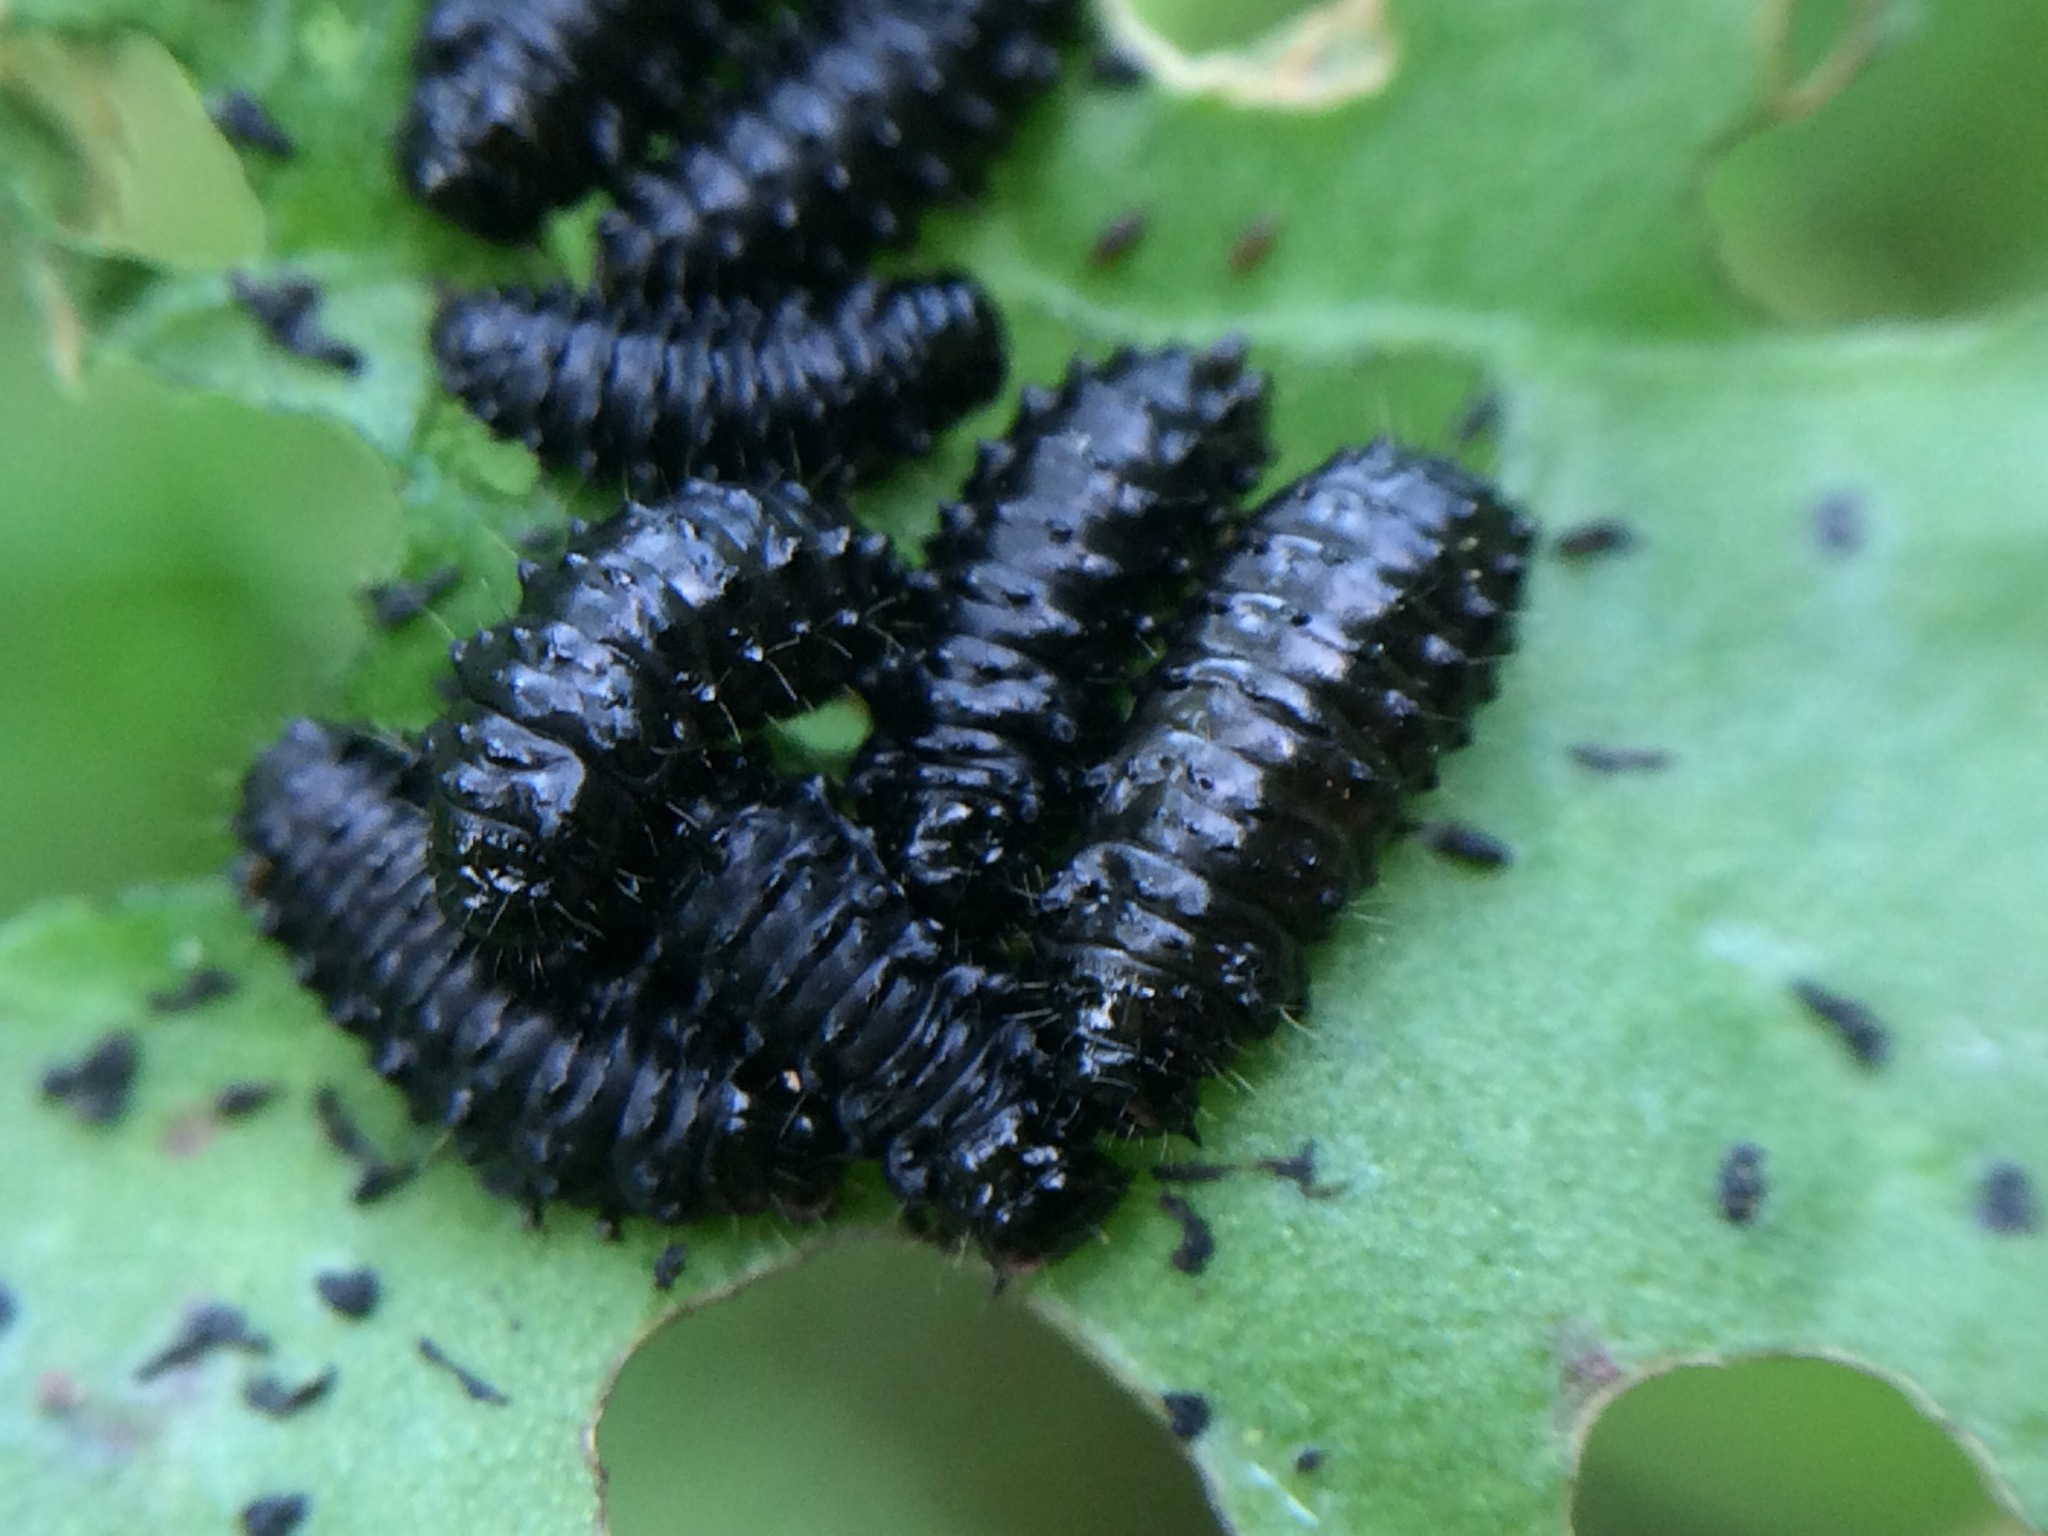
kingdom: Animalia
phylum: Arthropoda
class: Insecta
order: Coleoptera
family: Chrysomelidae
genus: Gastrophysa
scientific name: Gastrophysa cyanea
